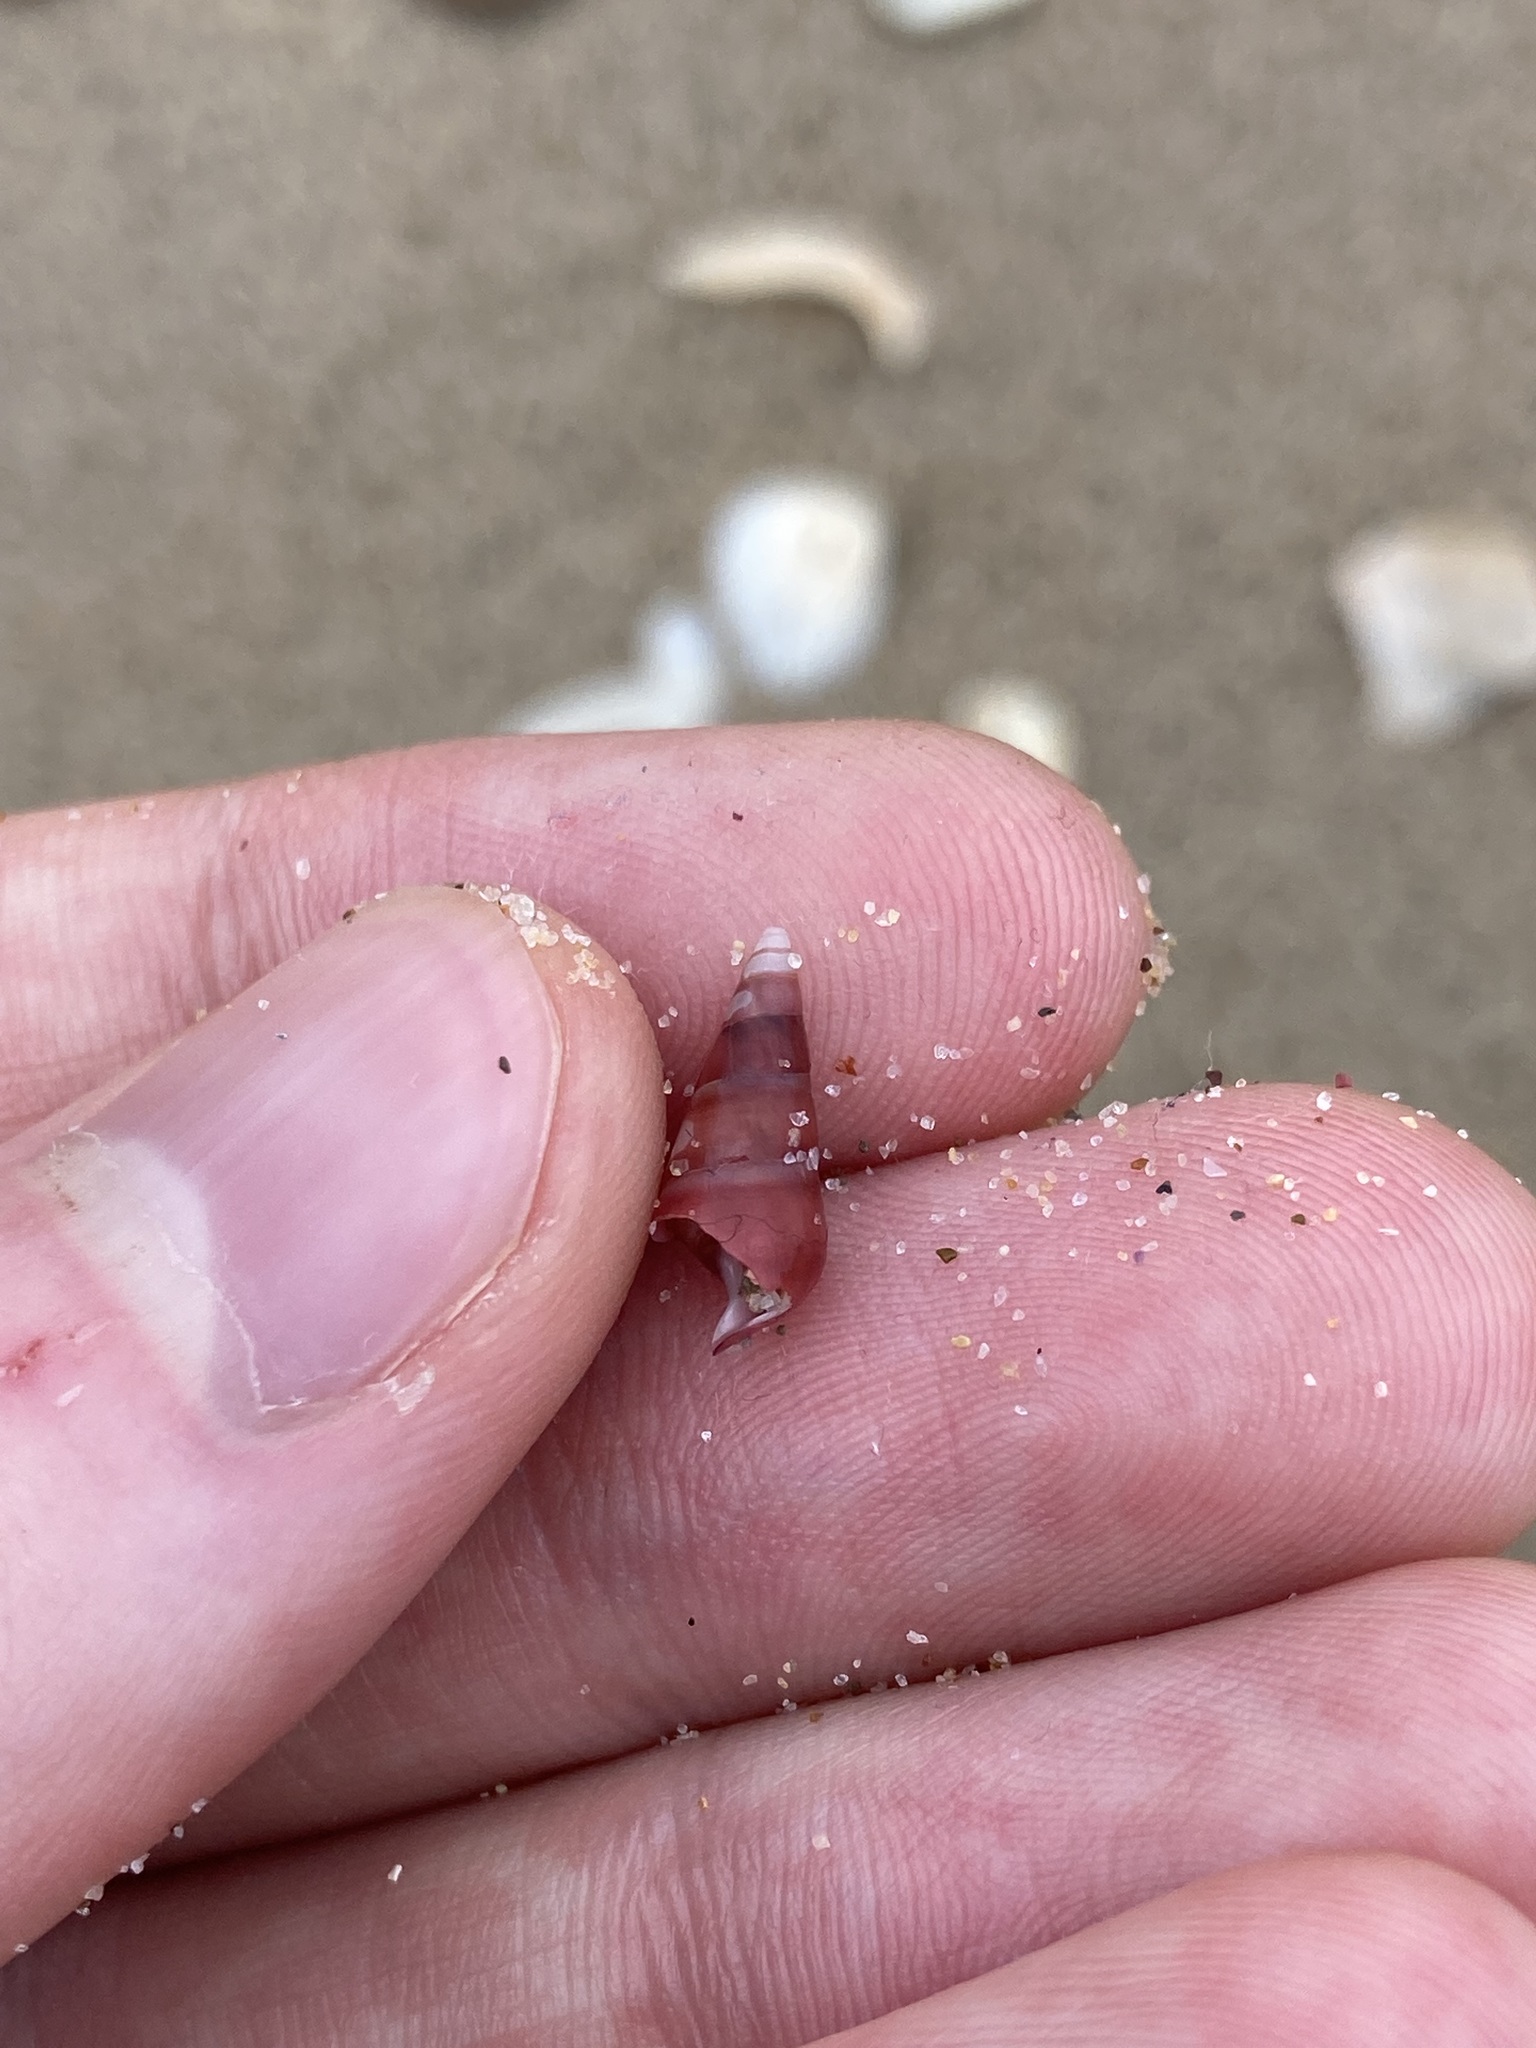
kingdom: Animalia
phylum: Mollusca
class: Gastropoda
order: Trochida
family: Trochidae
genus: Bankivia
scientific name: Bankivia fasciata
